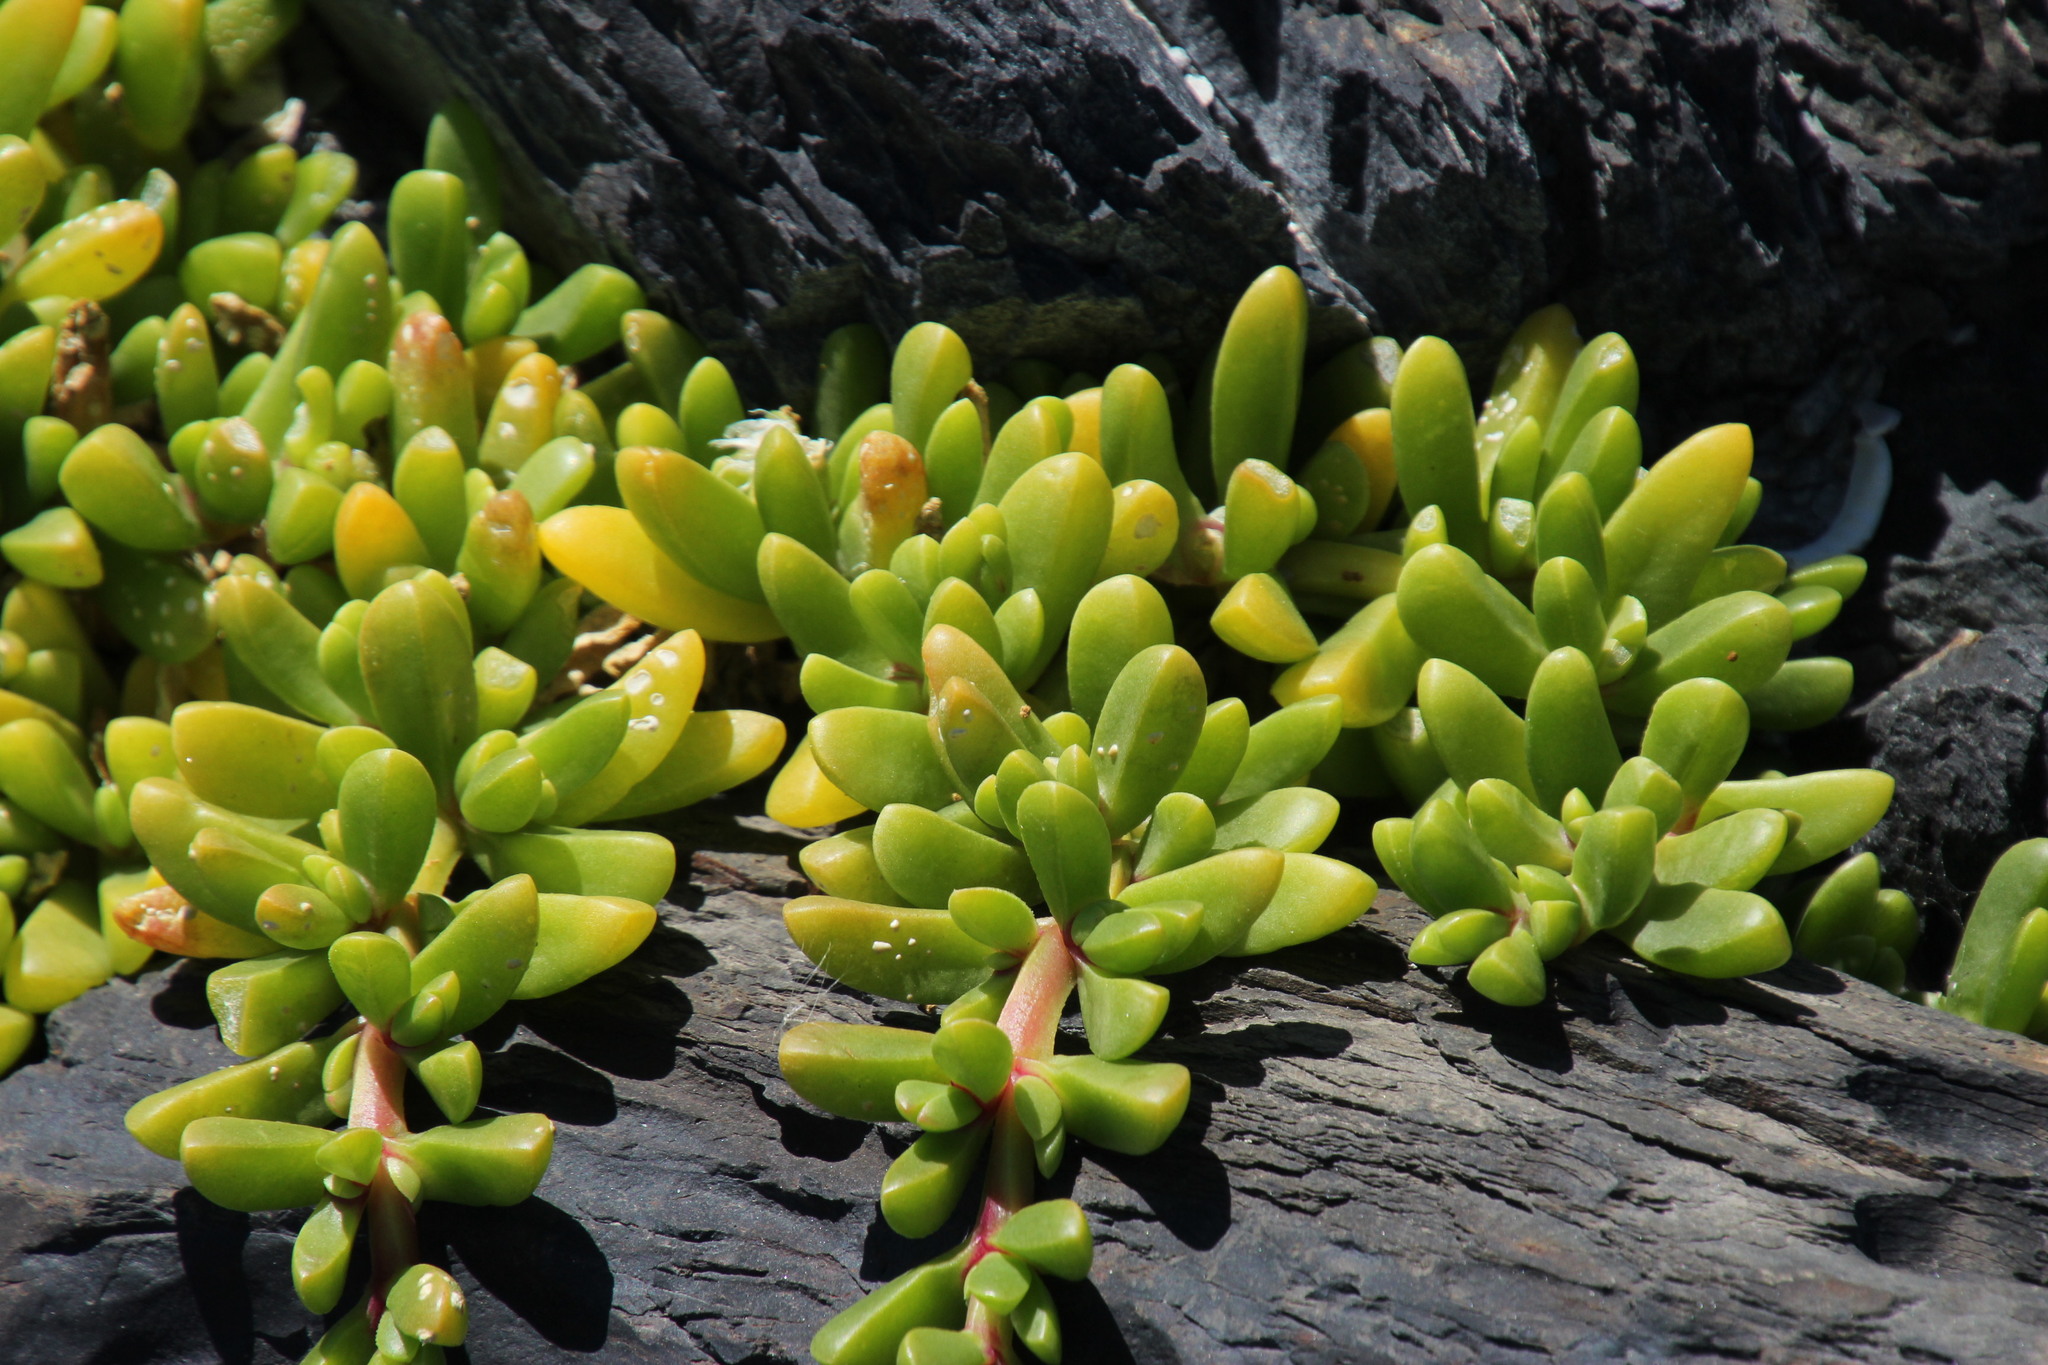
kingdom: Plantae
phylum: Tracheophyta
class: Magnoliopsida
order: Caryophyllales
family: Aizoaceae
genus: Disphyma
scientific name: Disphyma crassifolium
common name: Purple dewplant
